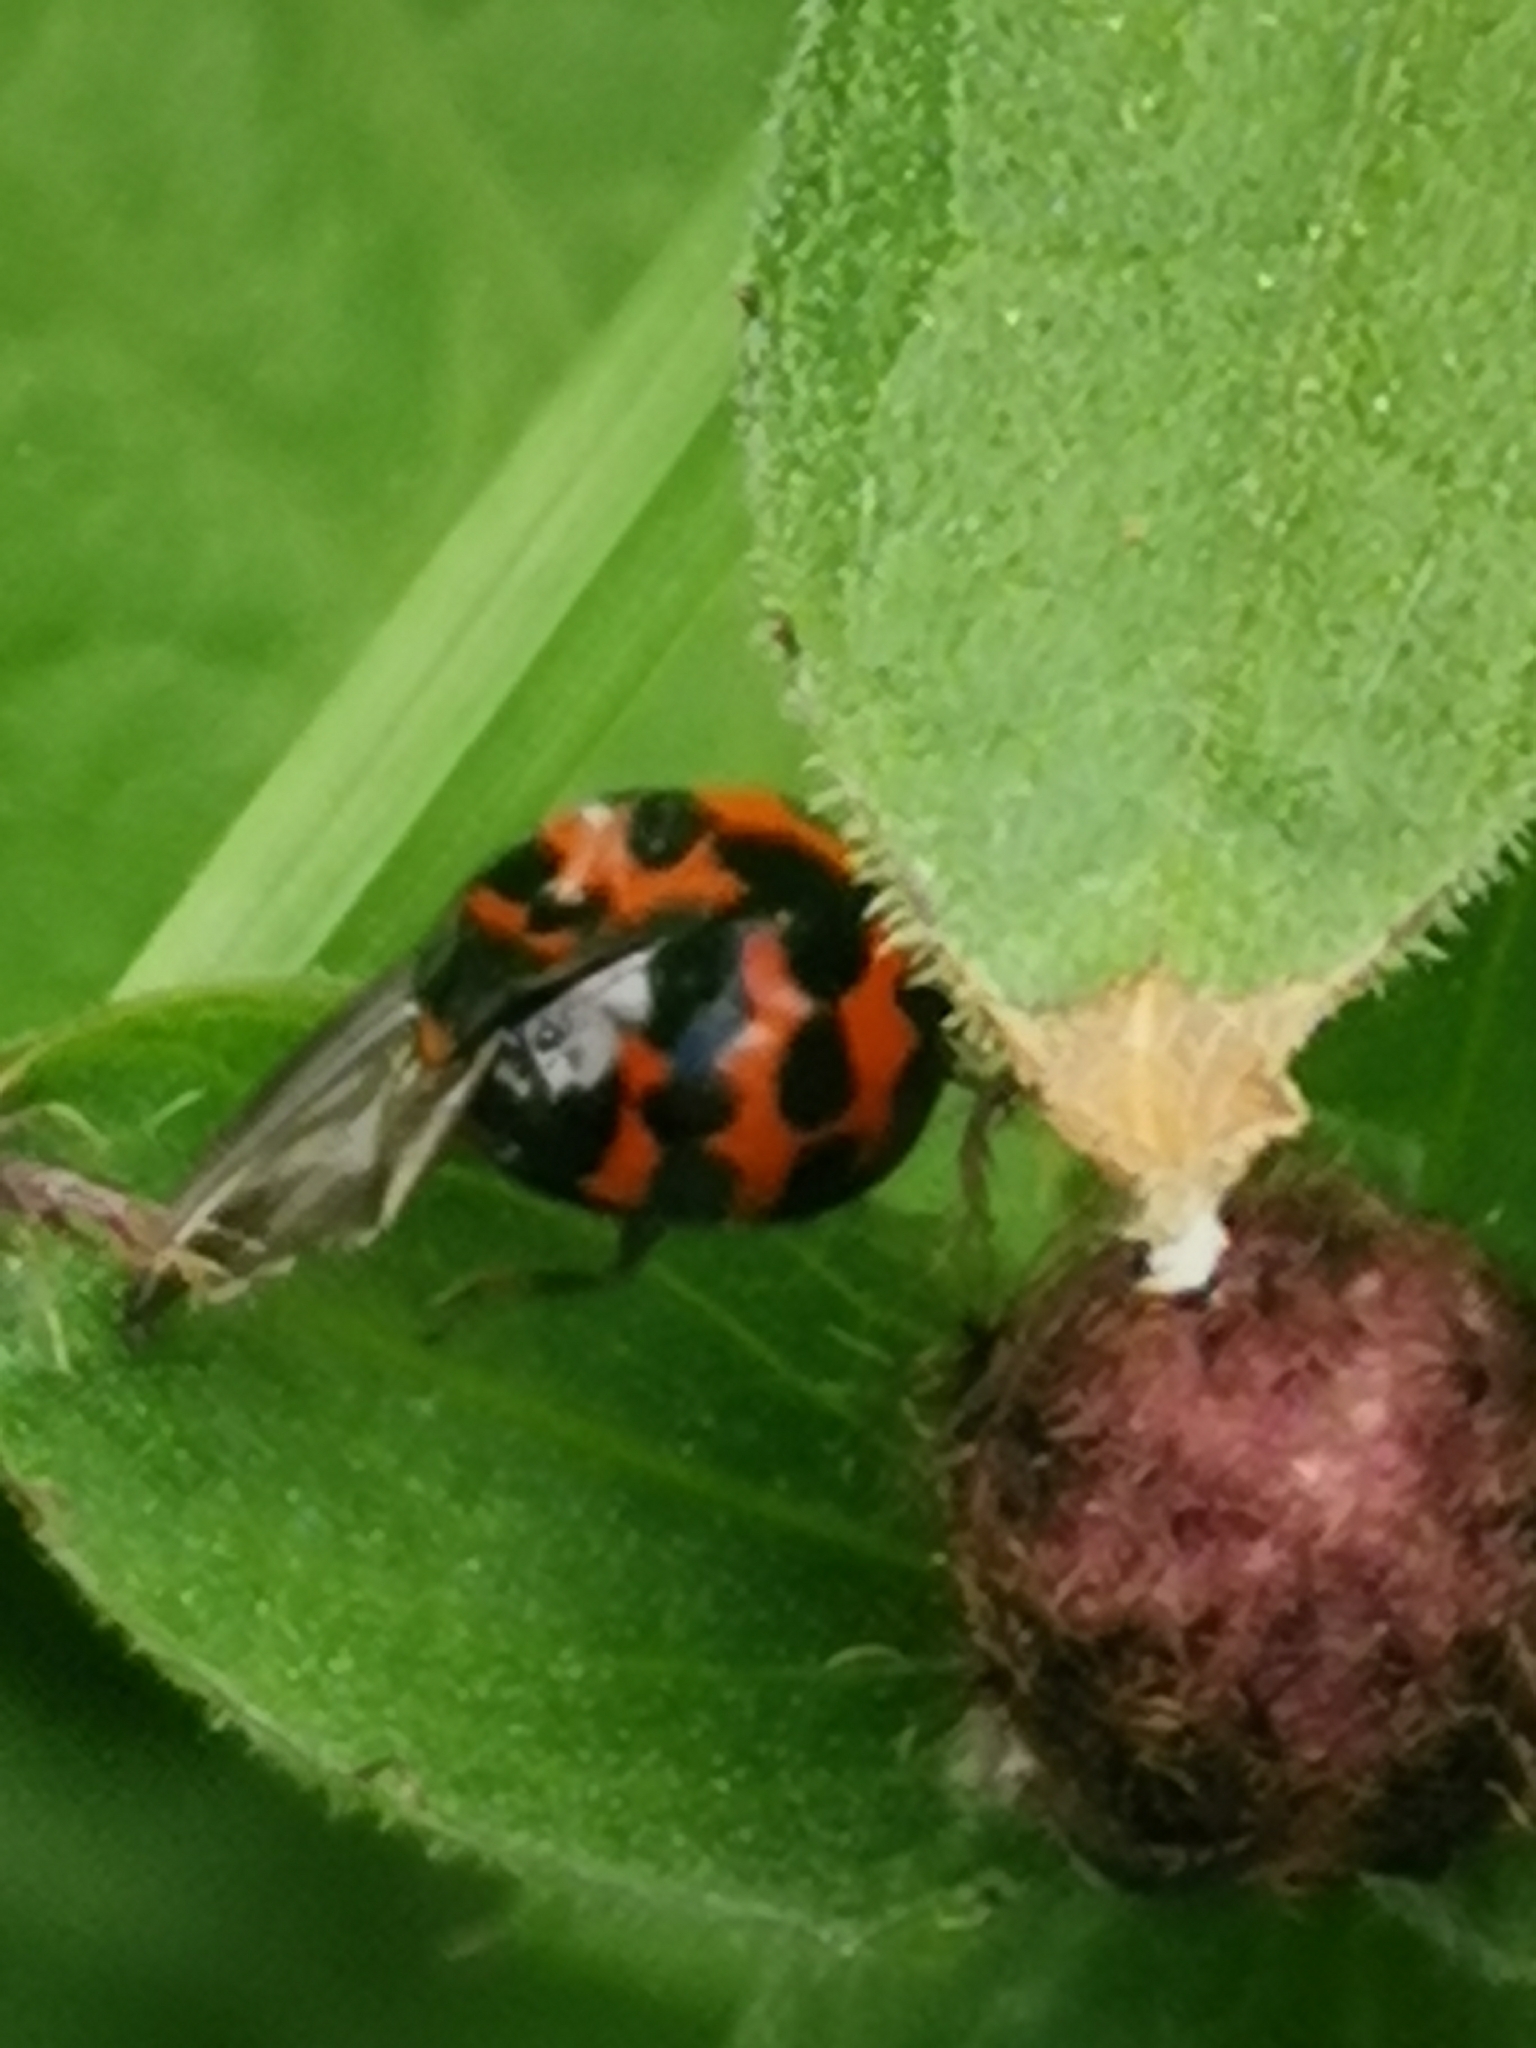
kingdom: Animalia
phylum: Arthropoda
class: Insecta
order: Coleoptera
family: Coccinellidae
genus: Harmonia
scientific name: Harmonia axyridis
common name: Harlequin ladybird
